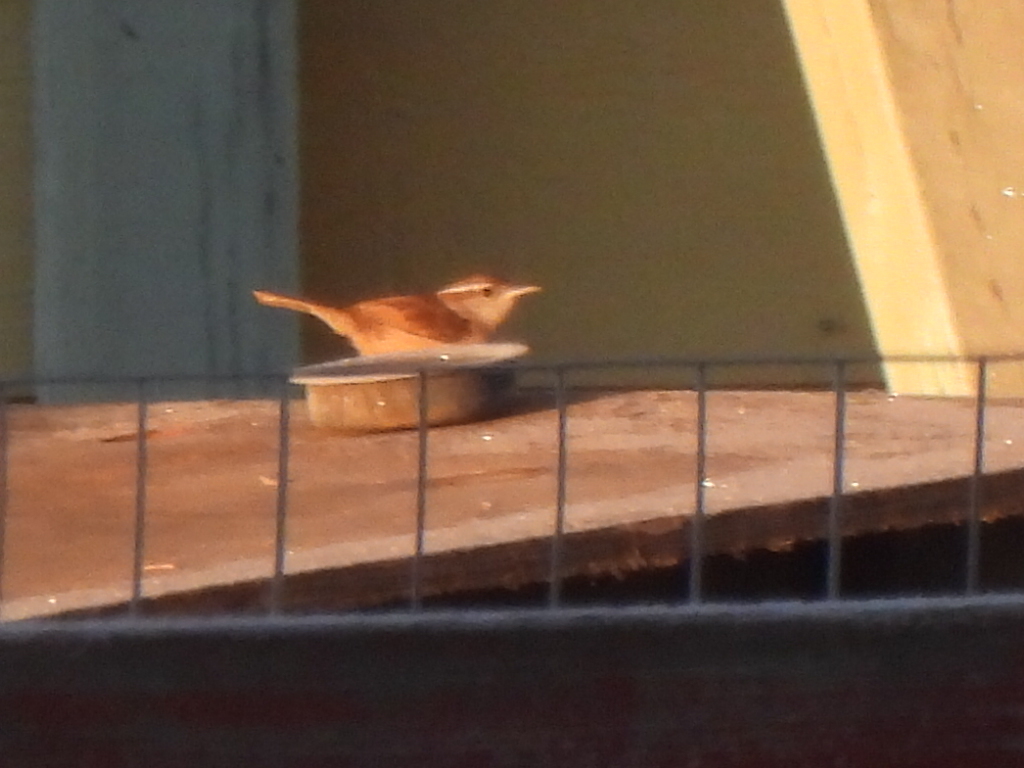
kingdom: Animalia
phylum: Chordata
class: Aves
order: Passeriformes
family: Troglodytidae
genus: Thryothorus
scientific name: Thryothorus ludovicianus
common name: Carolina wren
